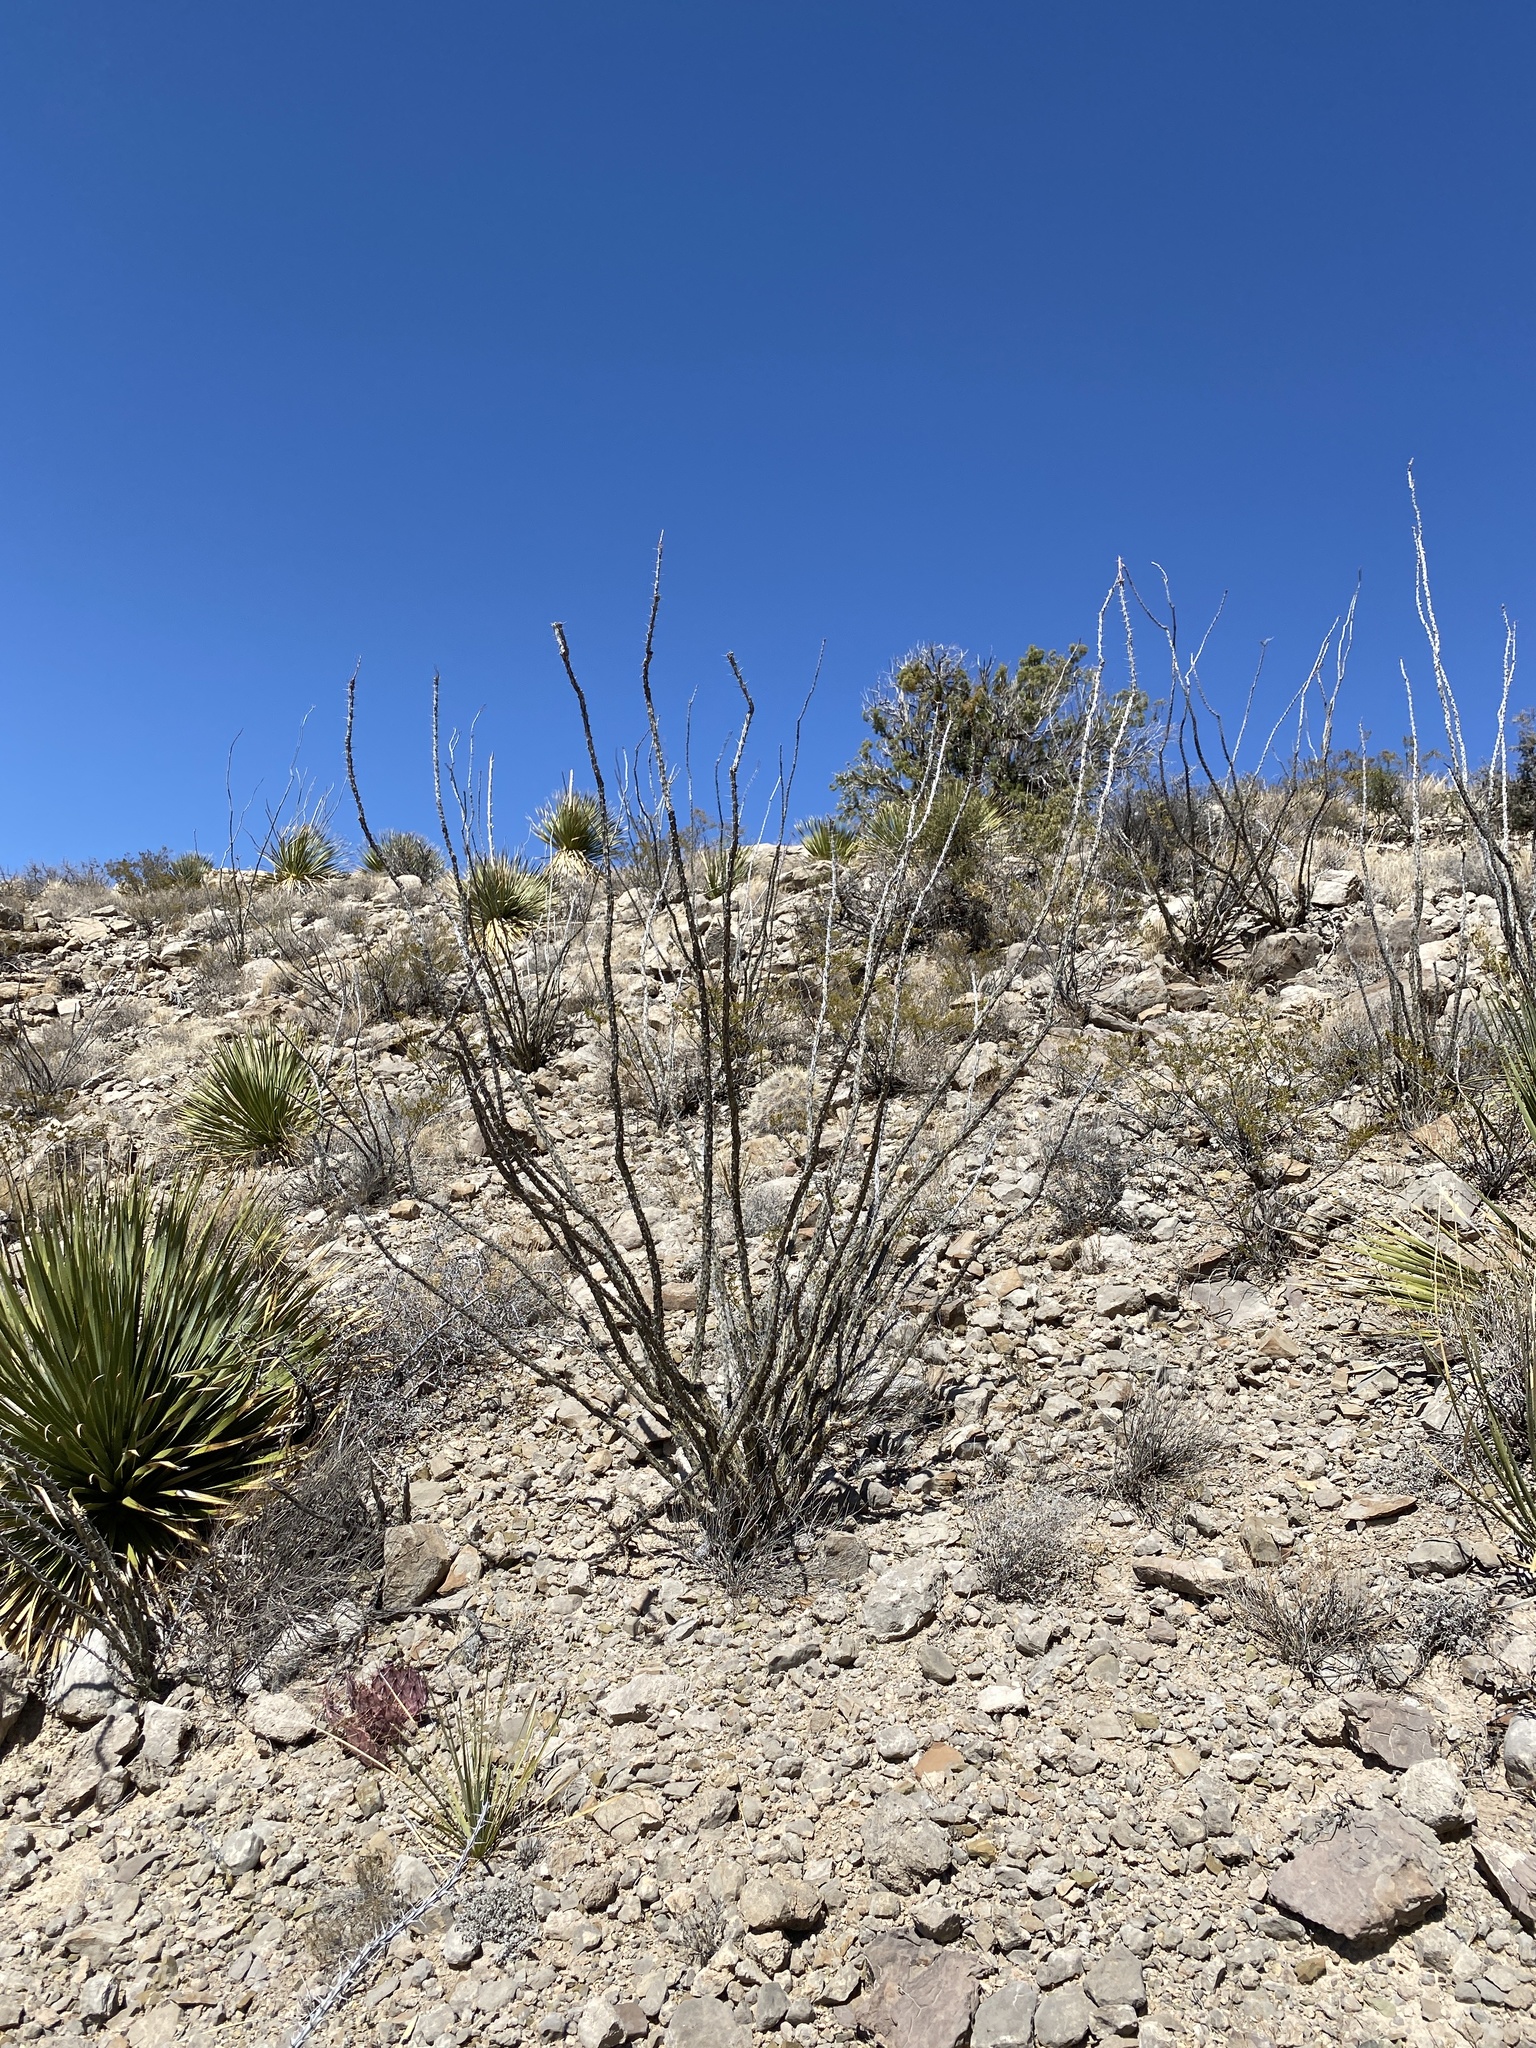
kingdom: Plantae
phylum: Tracheophyta
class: Magnoliopsida
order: Ericales
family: Fouquieriaceae
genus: Fouquieria
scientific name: Fouquieria splendens
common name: Vine-cactus
